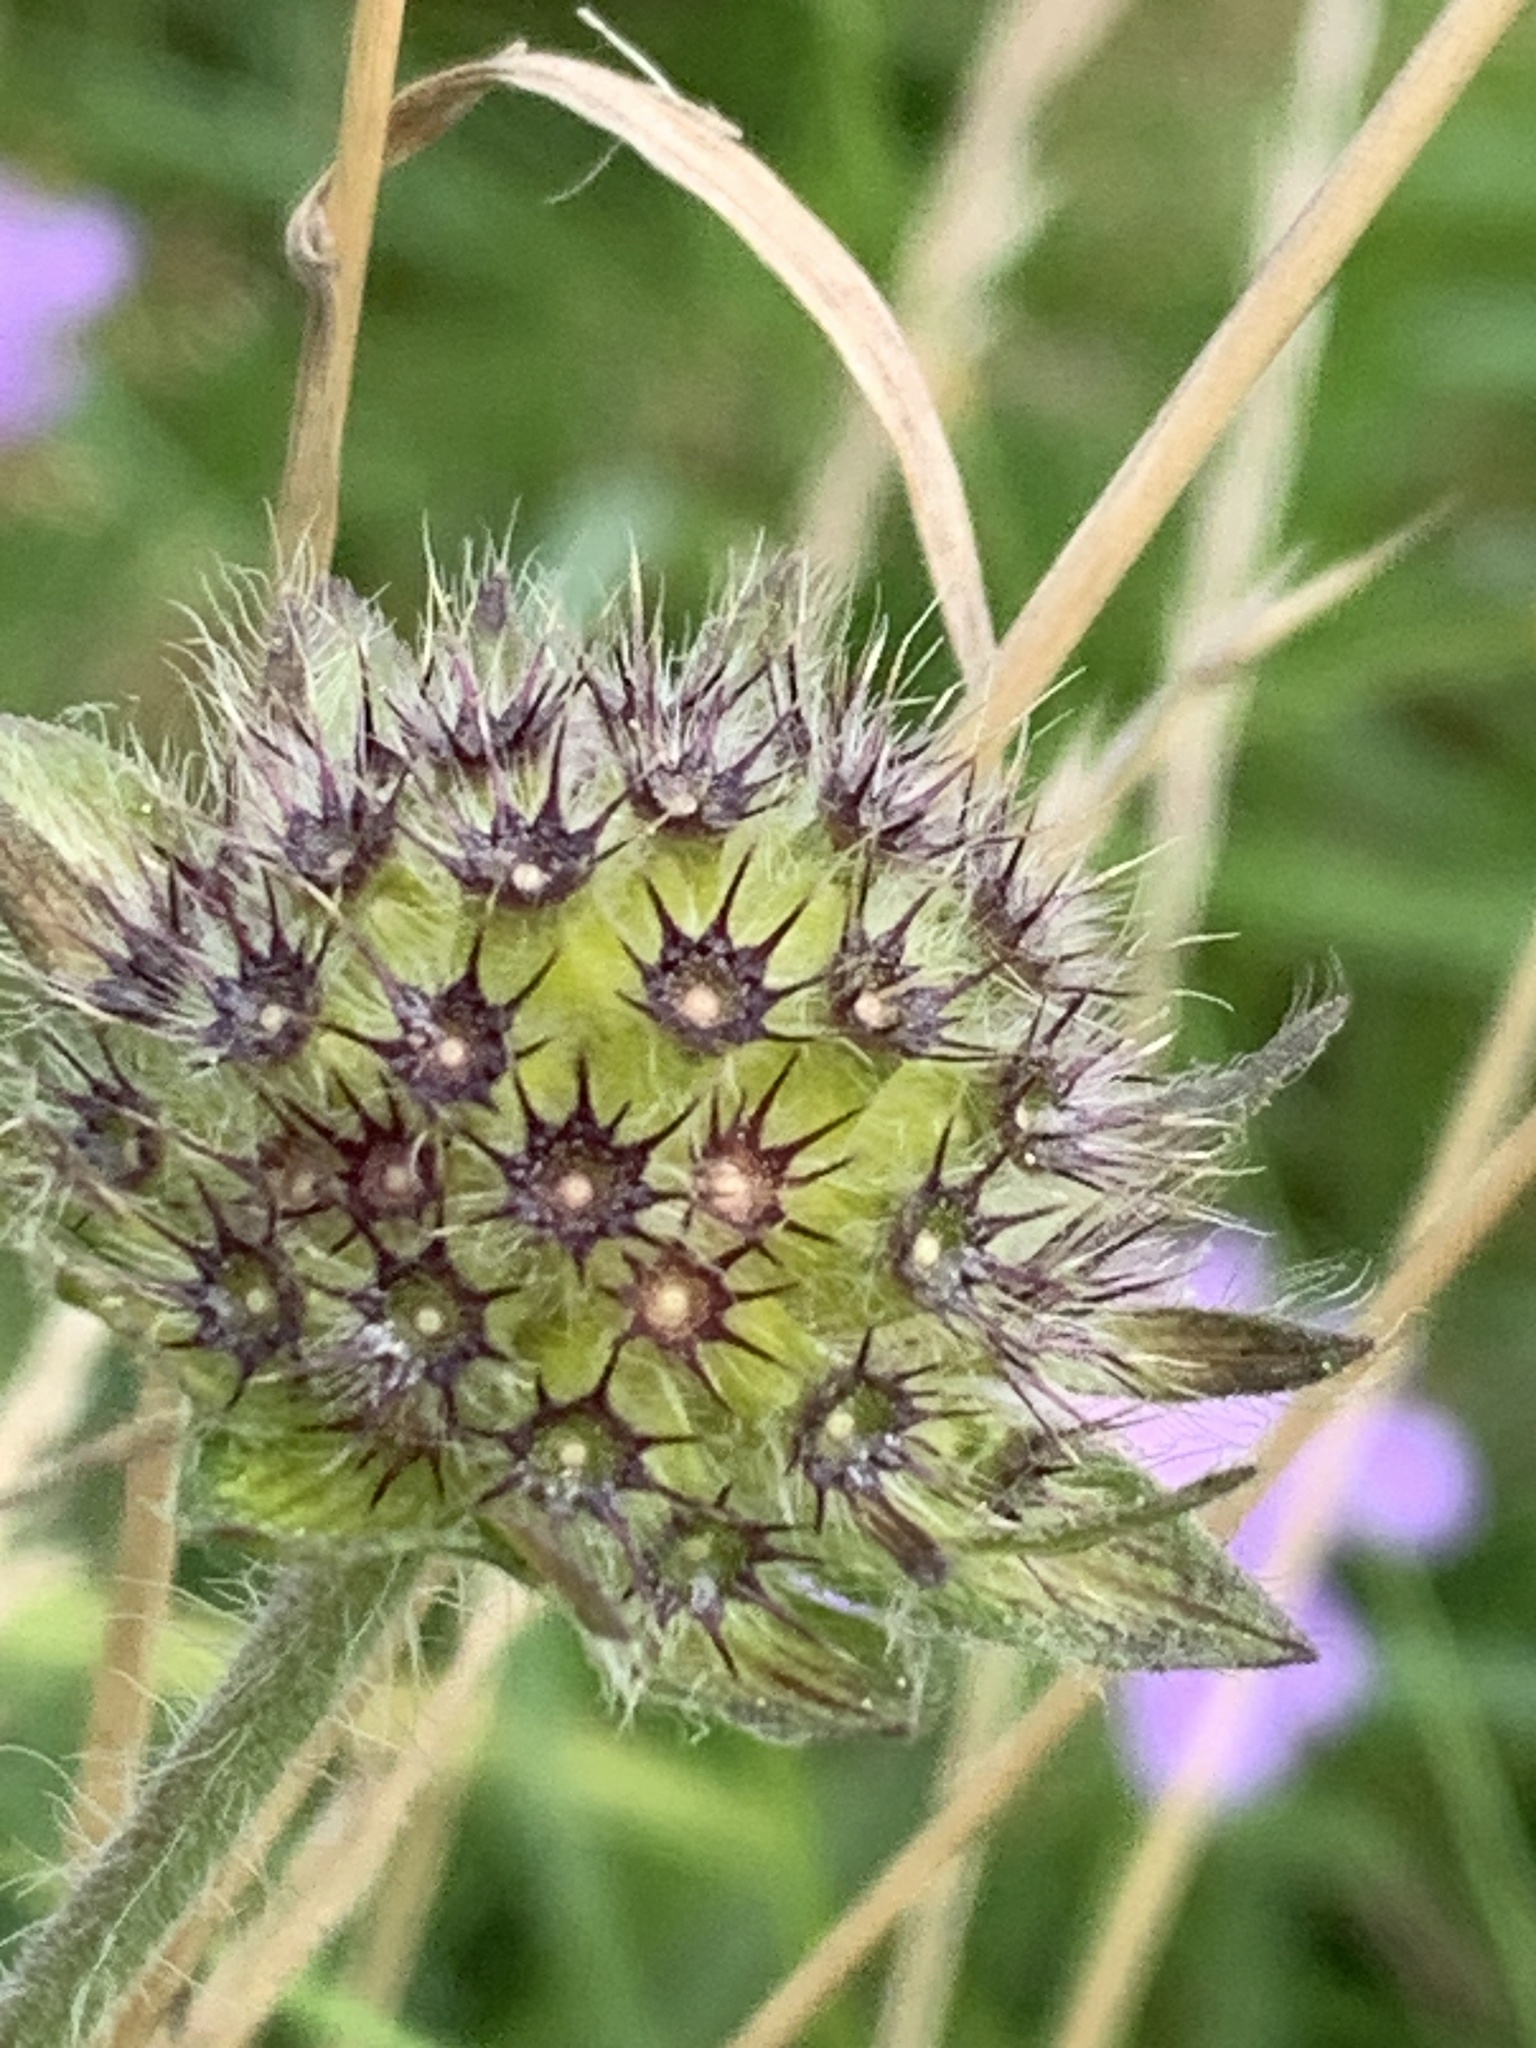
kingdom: Plantae
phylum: Tracheophyta
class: Magnoliopsida
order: Dipsacales
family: Caprifoliaceae
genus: Knautia
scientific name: Knautia arvensis
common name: Field scabiosa
